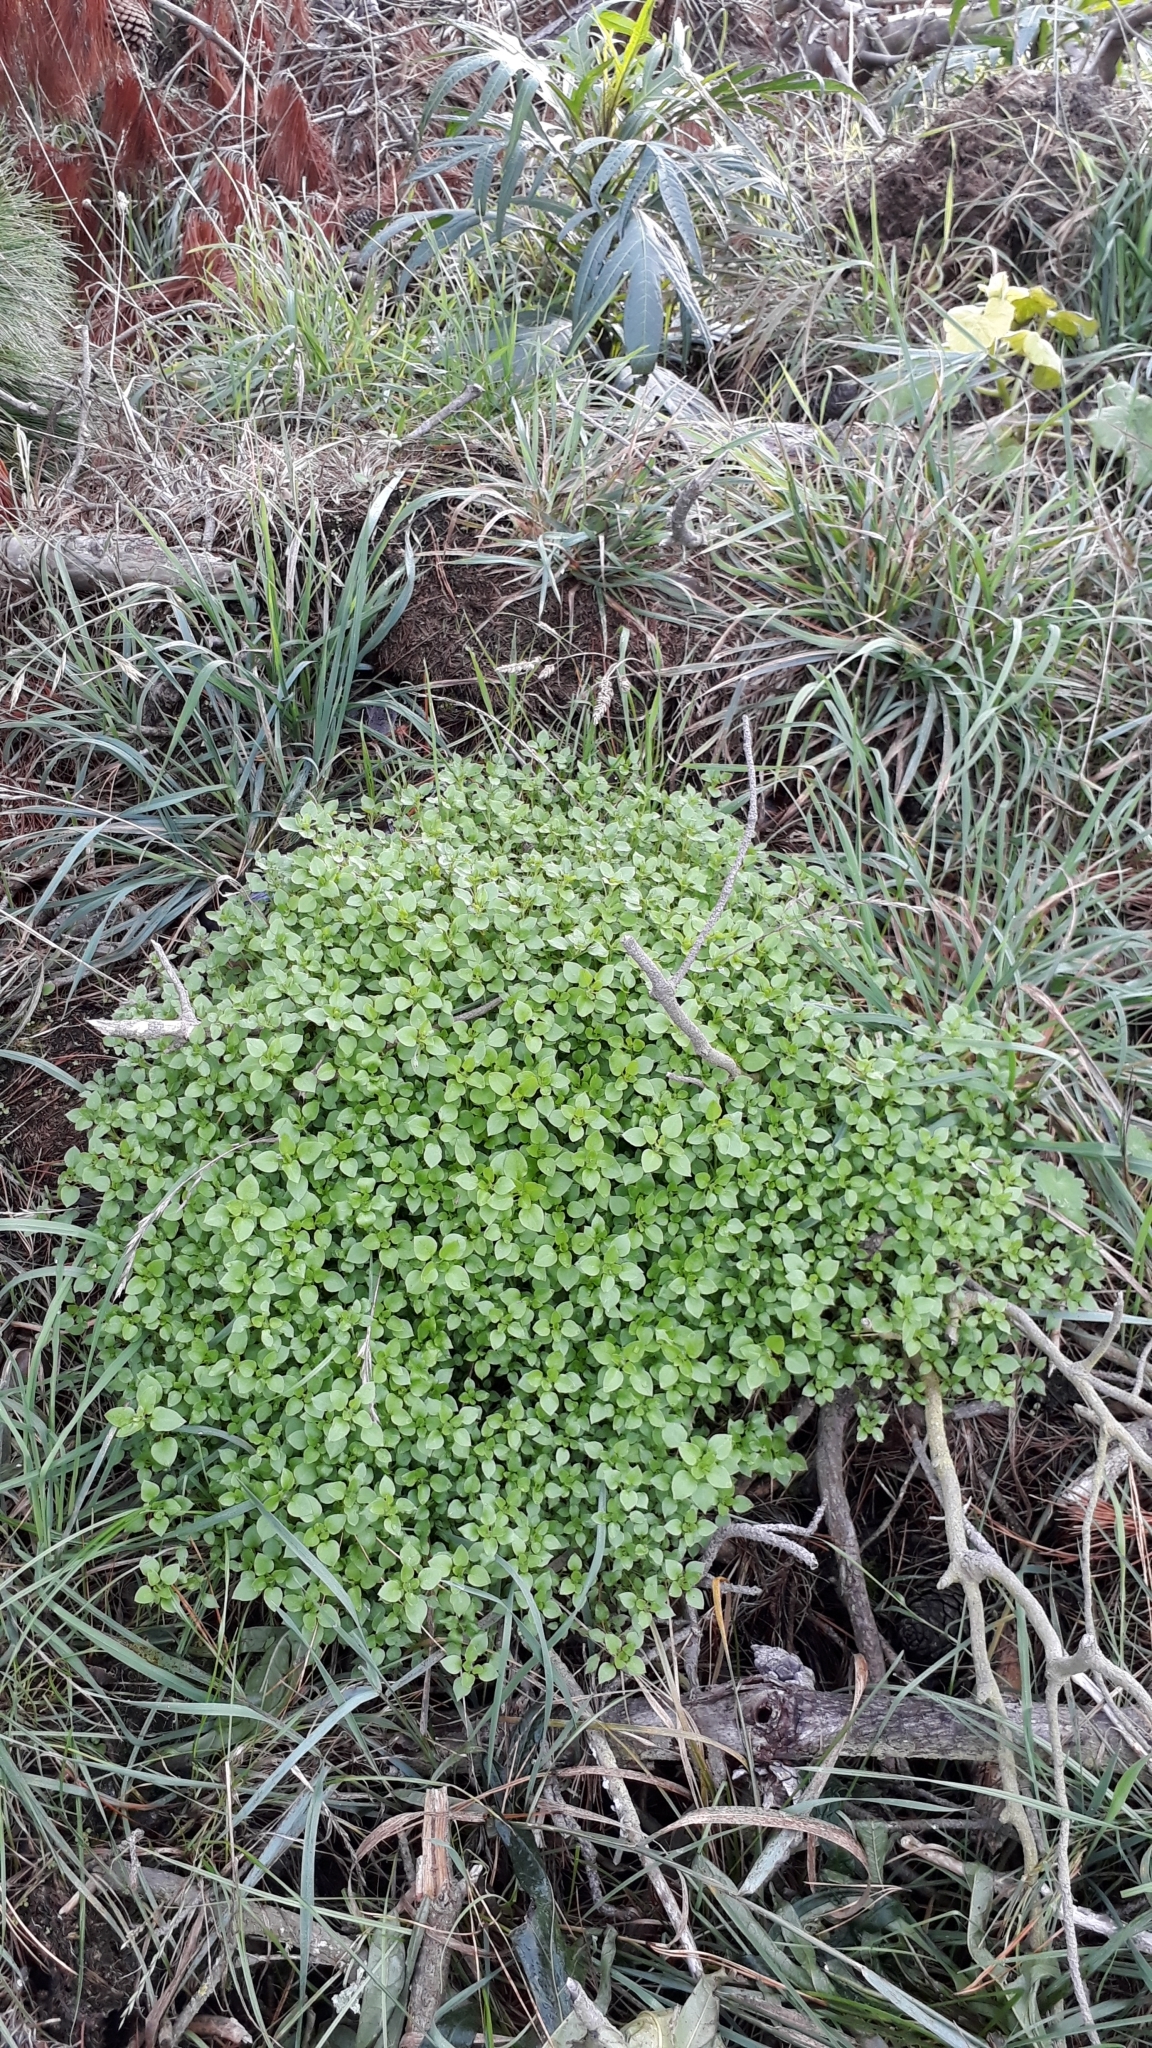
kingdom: Plantae
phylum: Tracheophyta
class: Magnoliopsida
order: Caryophyllales
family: Caryophyllaceae
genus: Stellaria
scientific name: Stellaria media
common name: Common chickweed
